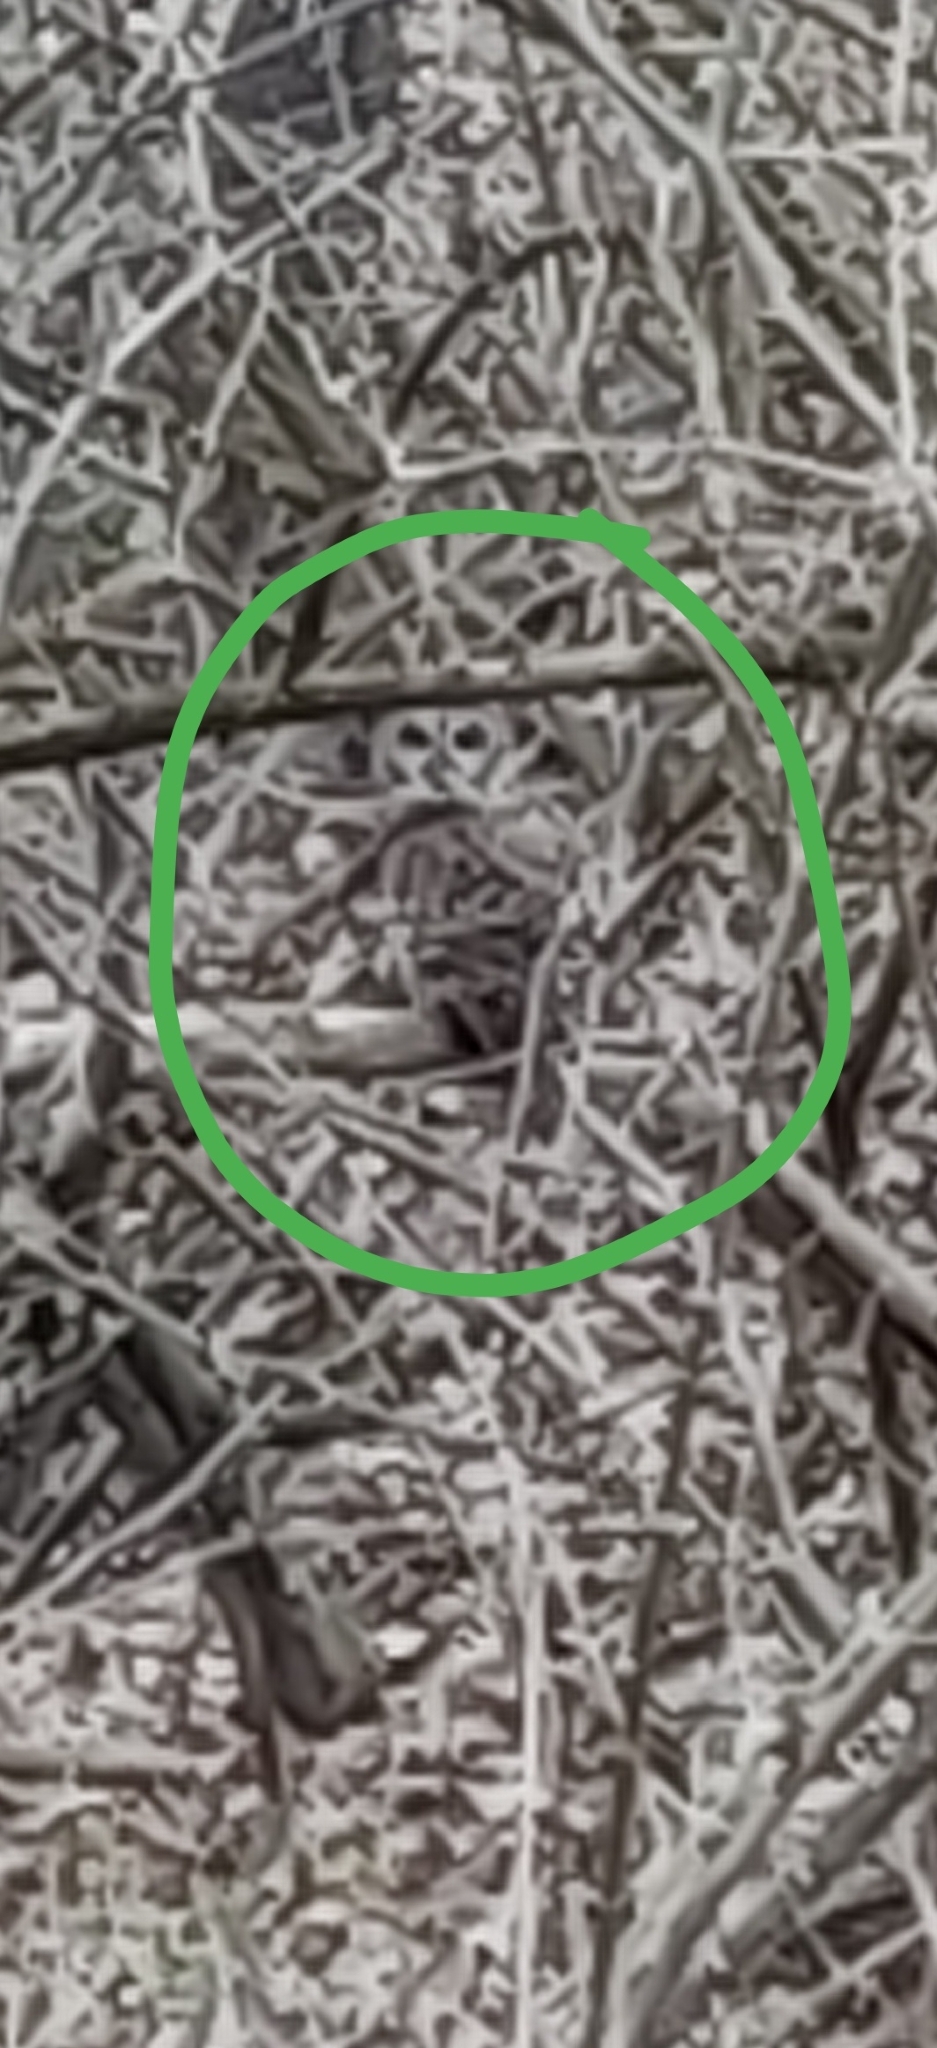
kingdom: Animalia
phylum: Chordata
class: Aves
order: Strigiformes
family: Strigidae
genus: Strix
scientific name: Strix varia
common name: Barred owl
